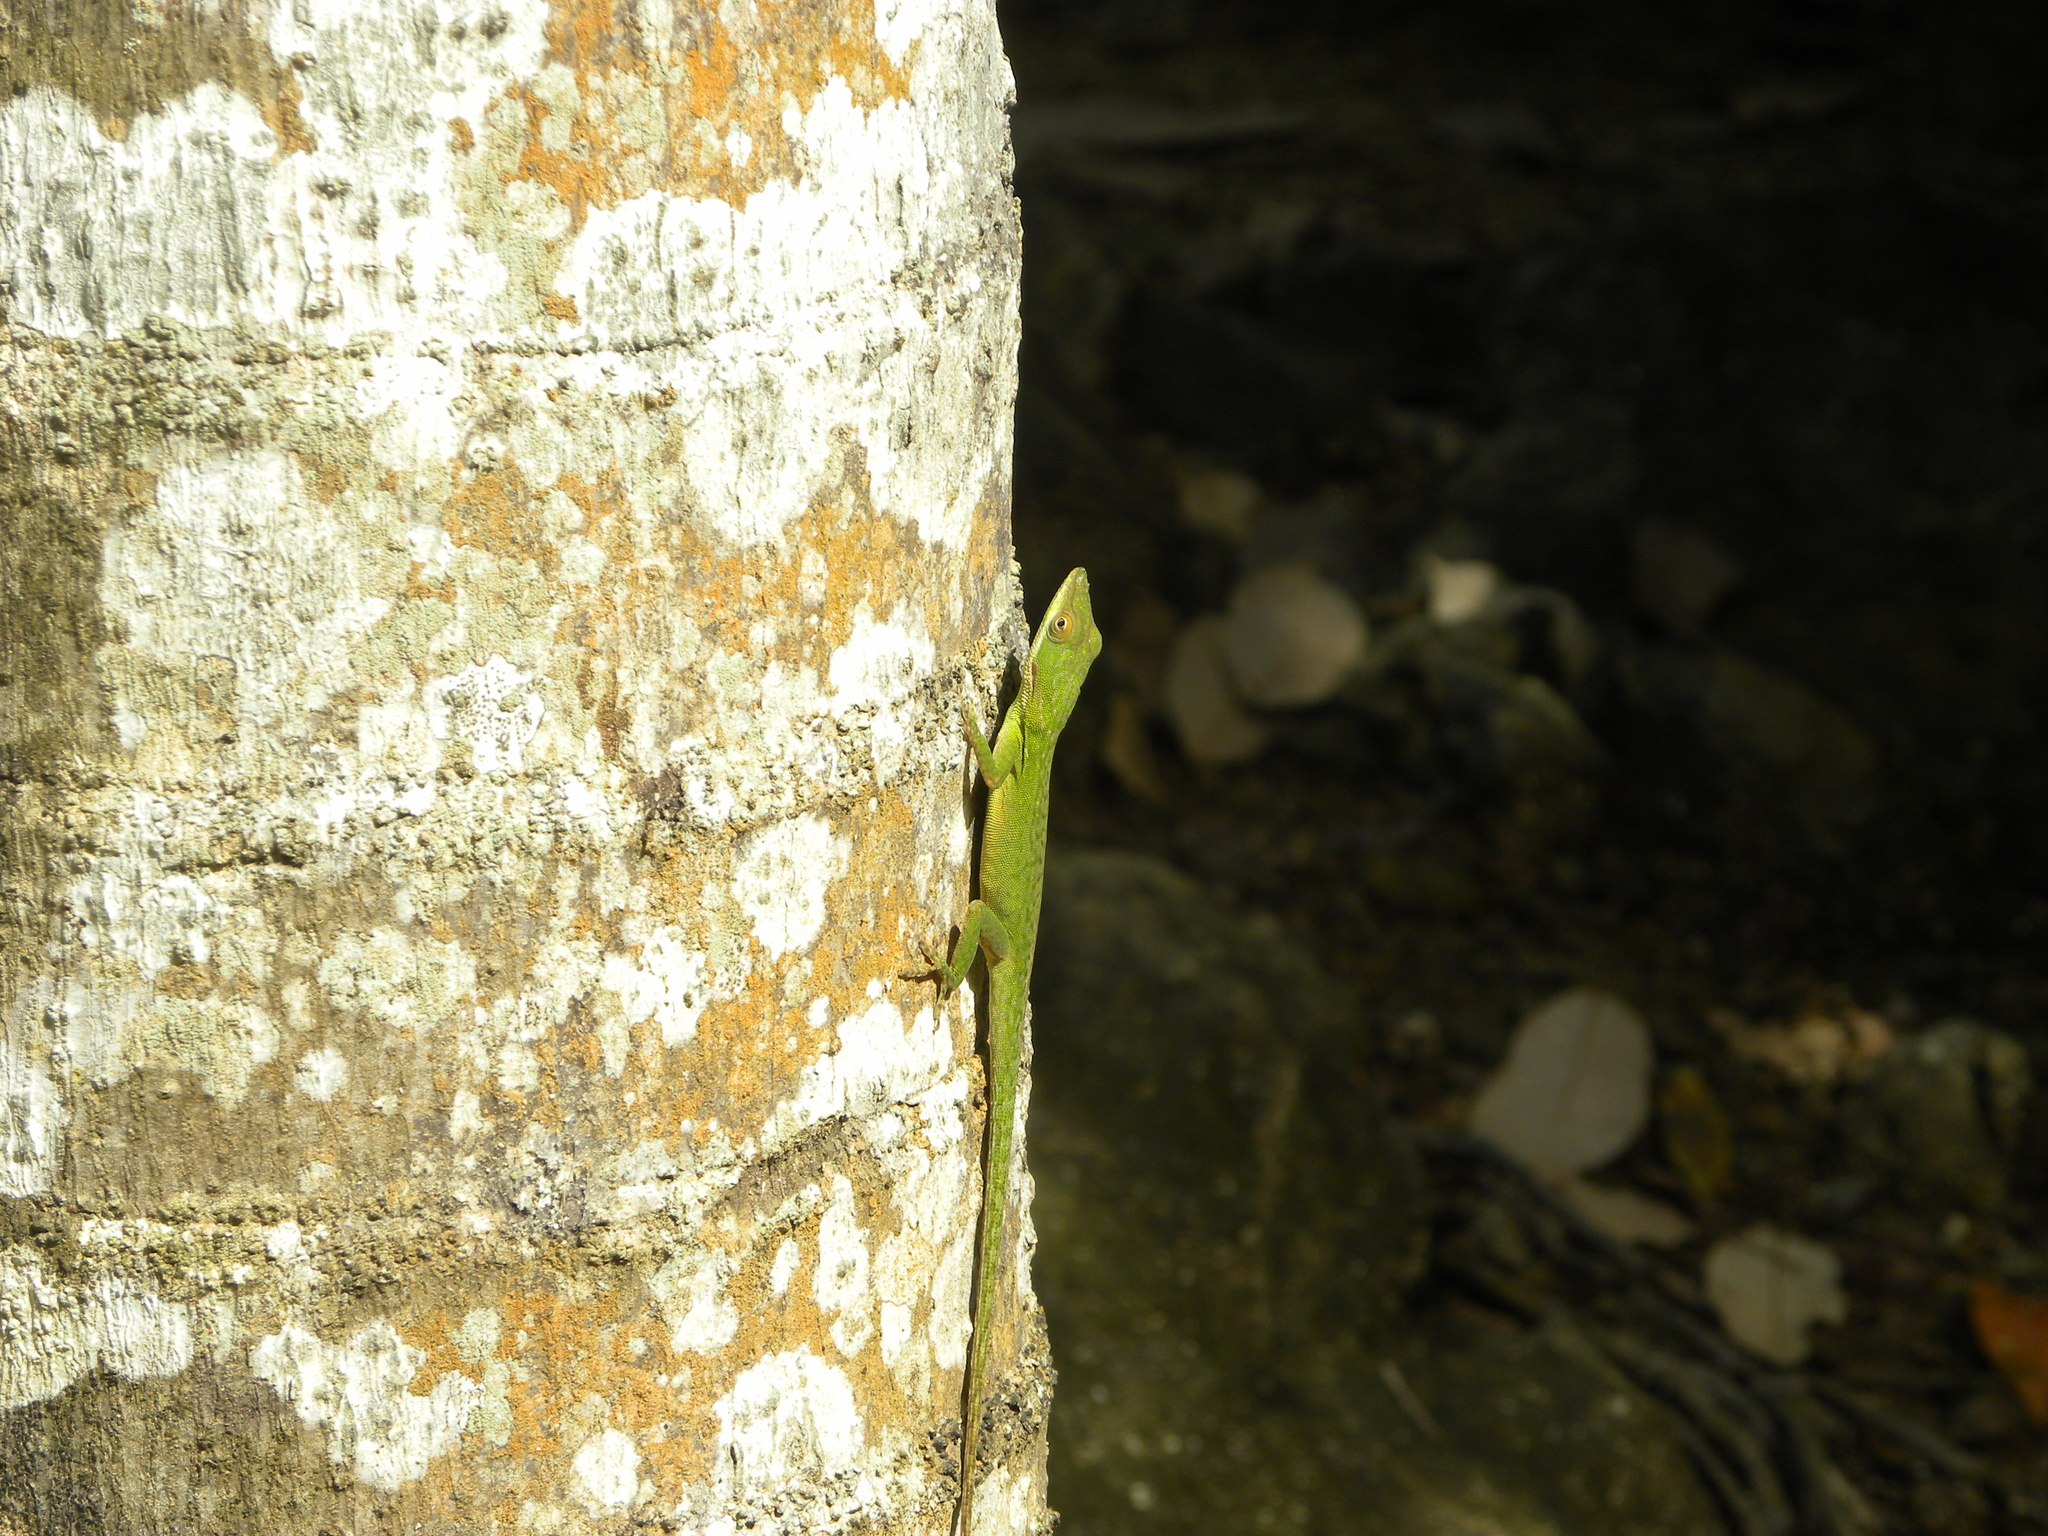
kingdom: Animalia
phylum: Chordata
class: Squamata
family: Dactyloidae
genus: Anolis
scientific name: Anolis allisoni
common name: Allison's anole
